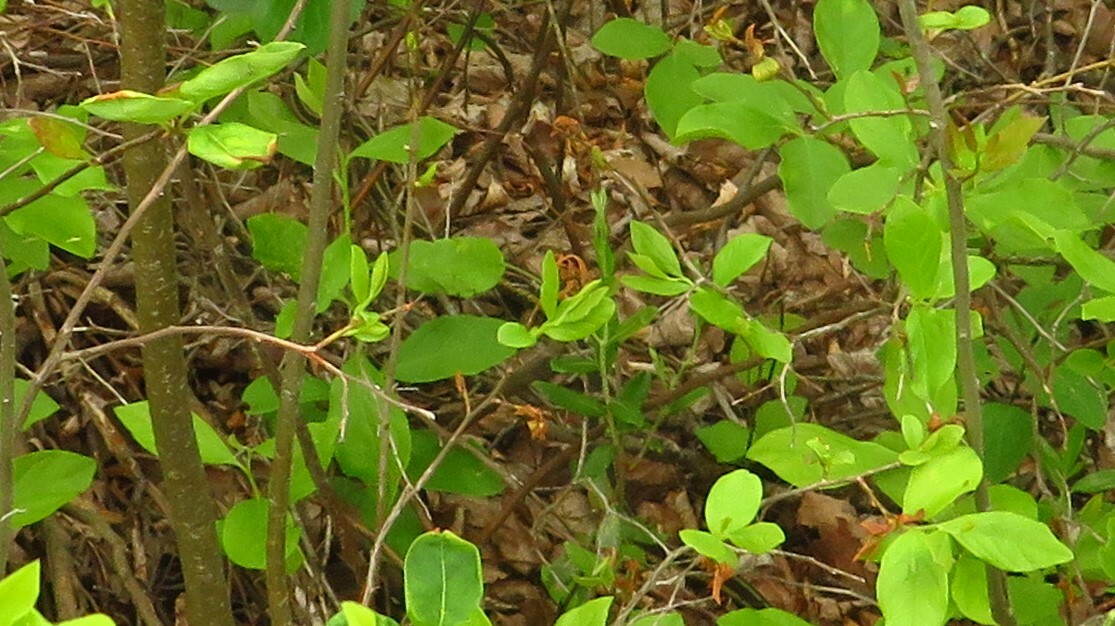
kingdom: Animalia
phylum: Chordata
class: Squamata
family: Colubridae
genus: Thamnophis
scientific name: Thamnophis sirtalis
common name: Common garter snake
